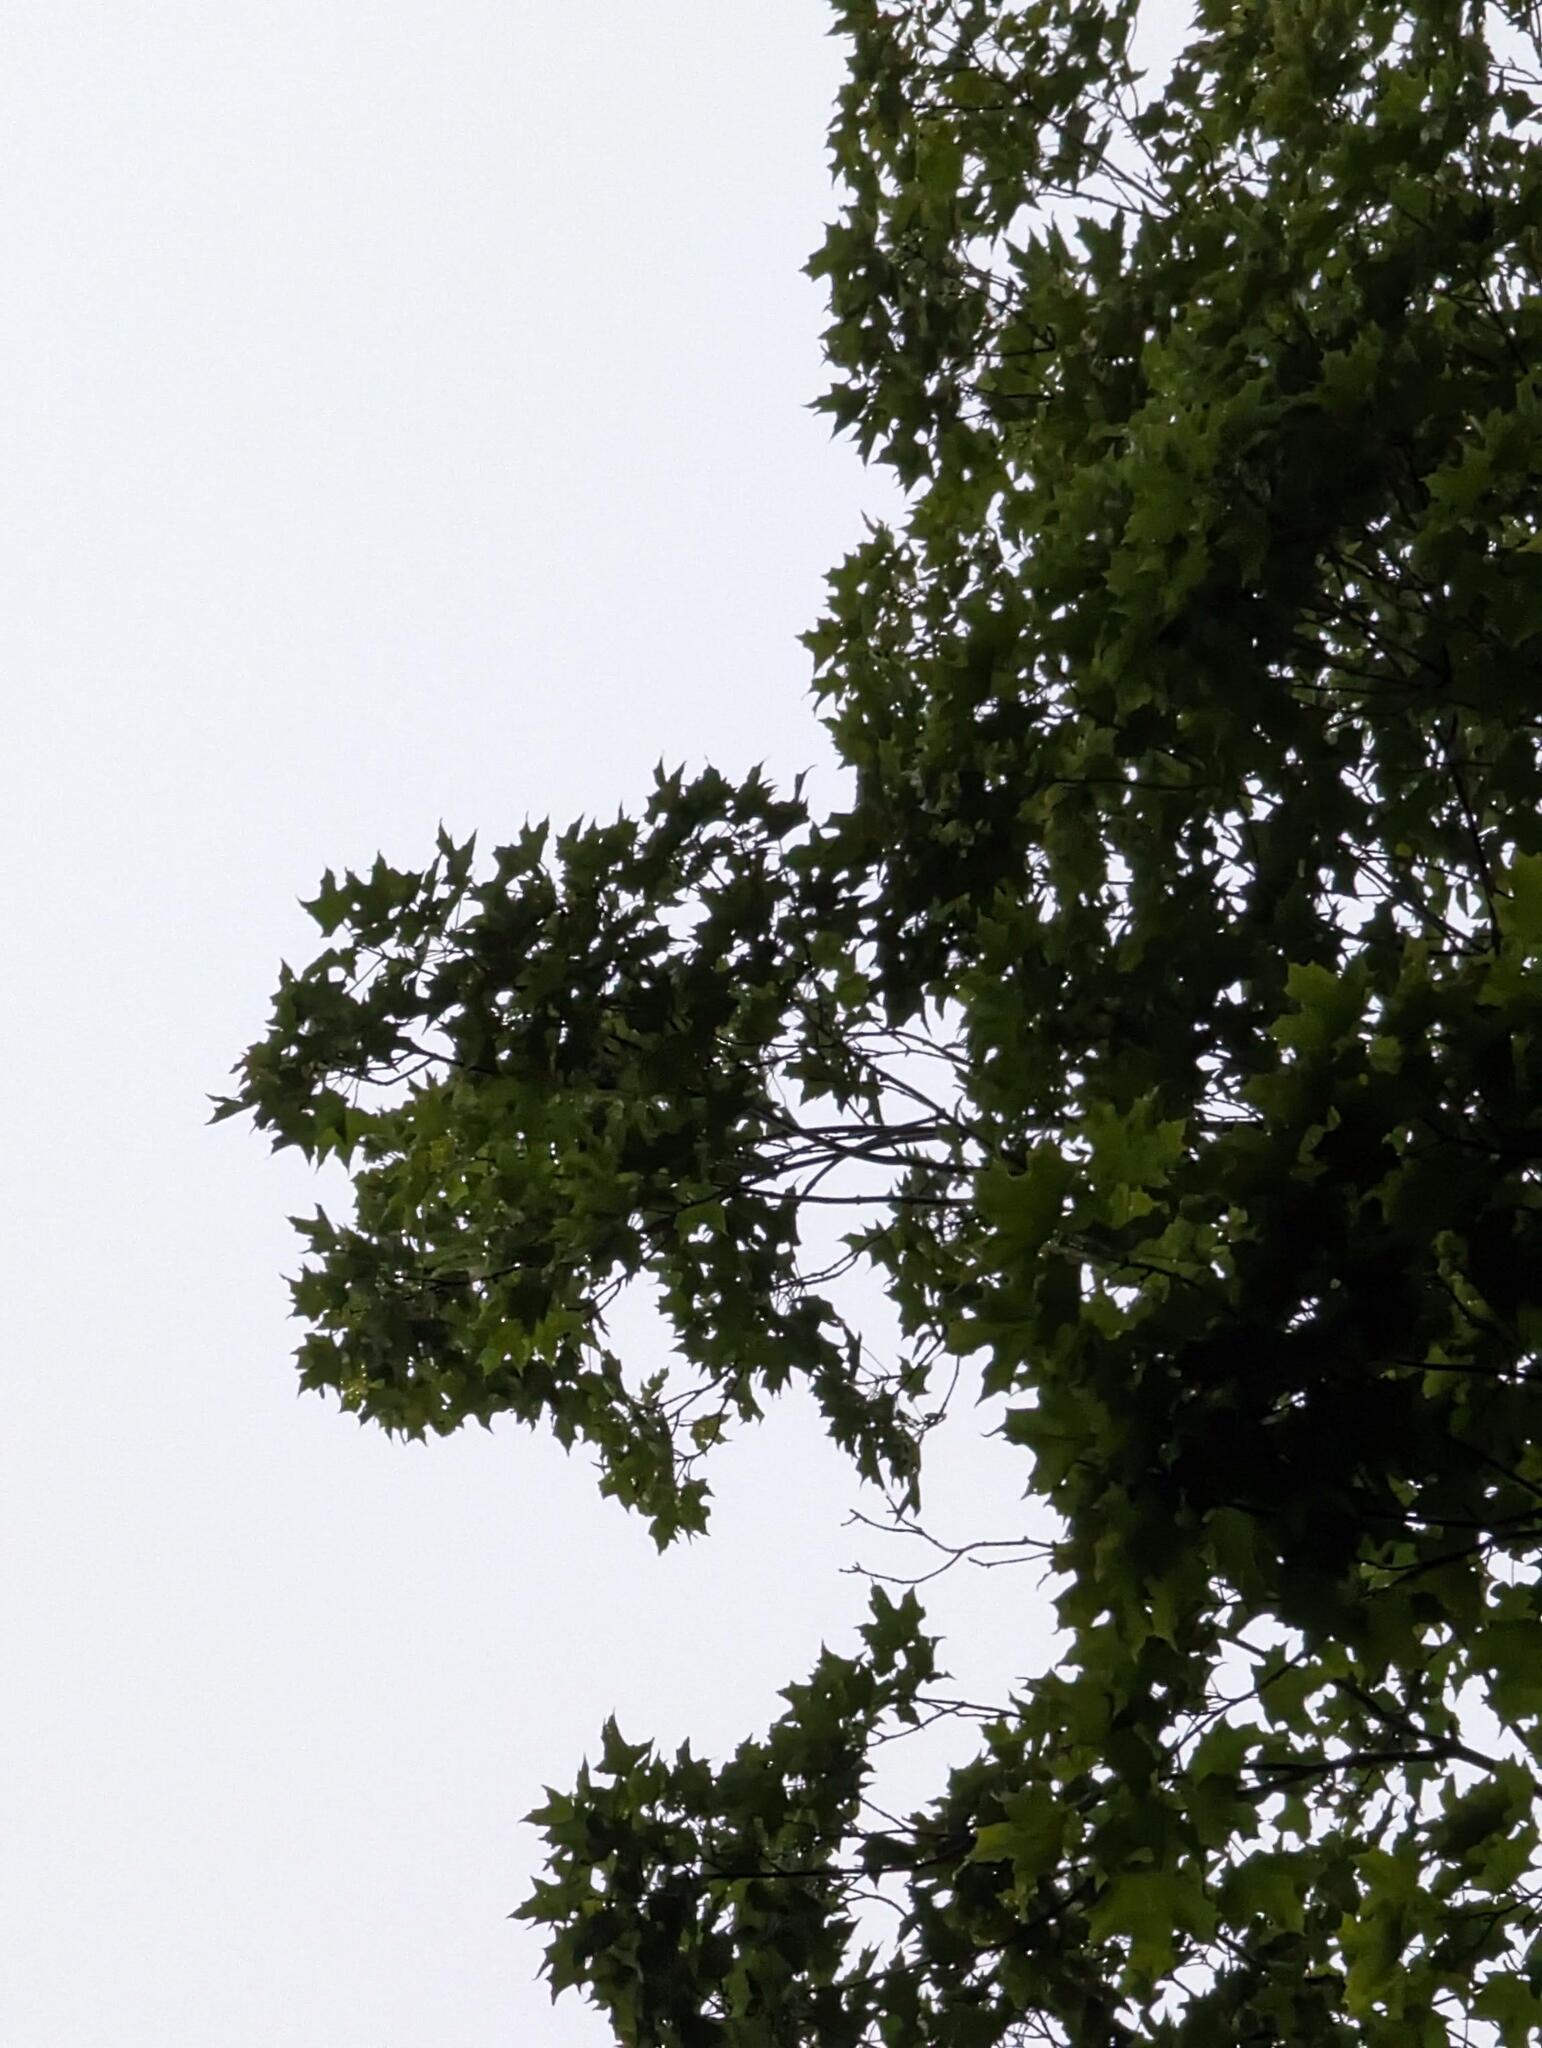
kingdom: Plantae
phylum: Tracheophyta
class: Magnoliopsida
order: Sapindales
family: Sapindaceae
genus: Acer
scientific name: Acer saccharum
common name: Sugar maple
